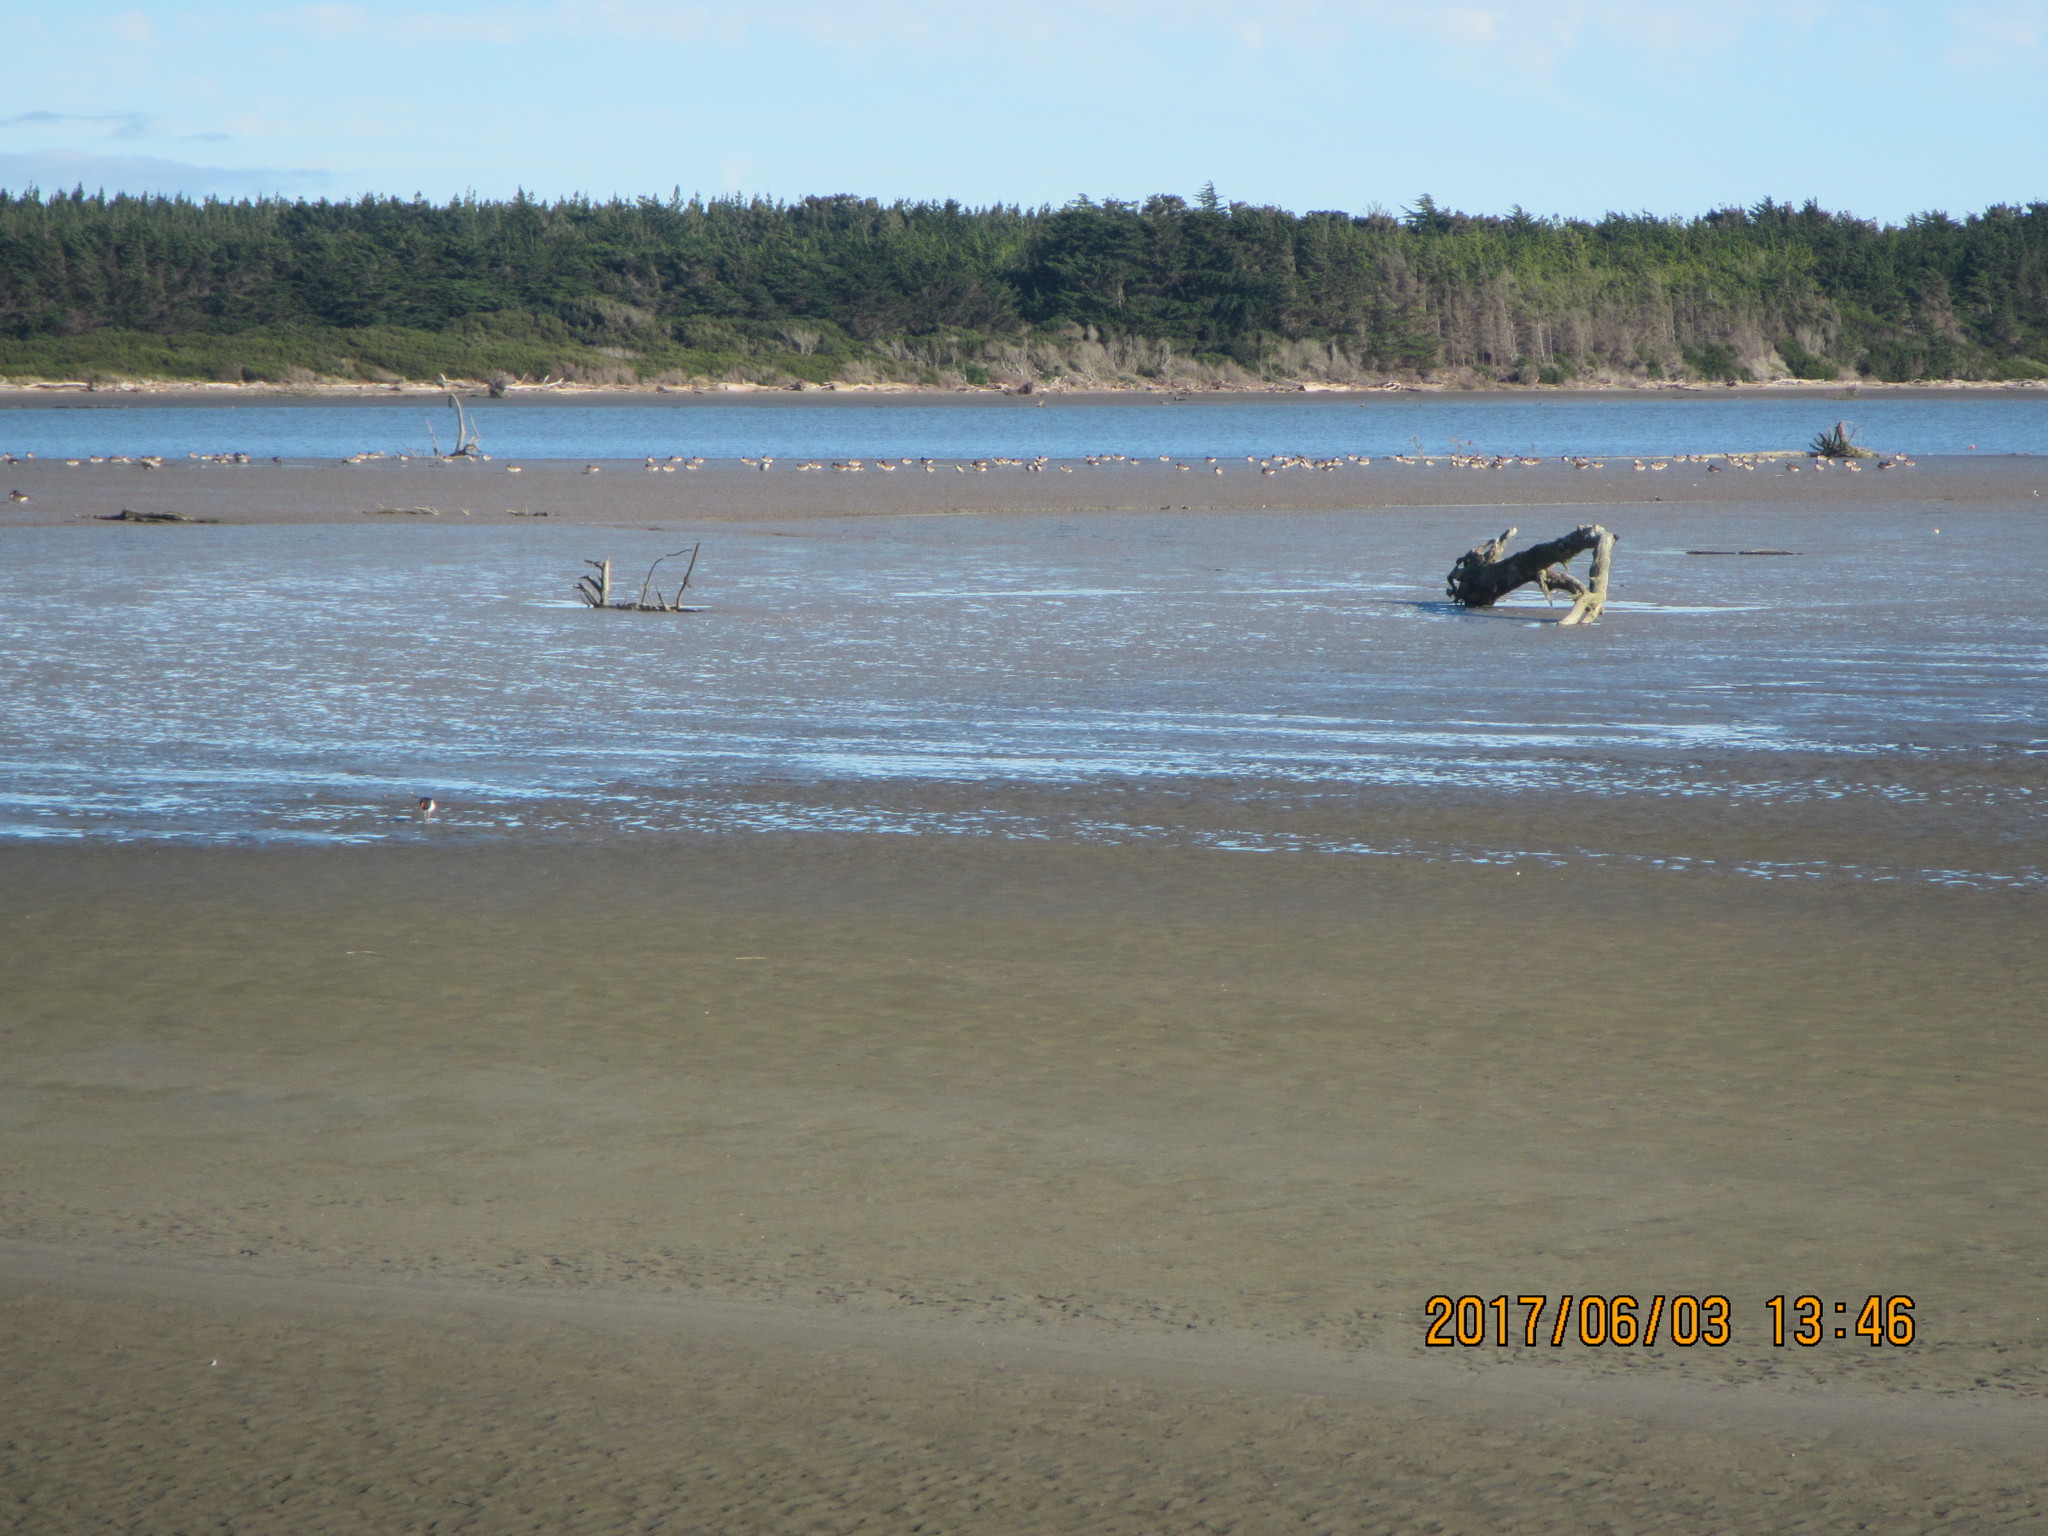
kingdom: Animalia
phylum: Chordata
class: Aves
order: Anseriformes
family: Anatidae
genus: Branta
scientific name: Branta canadensis
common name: Canada goose
